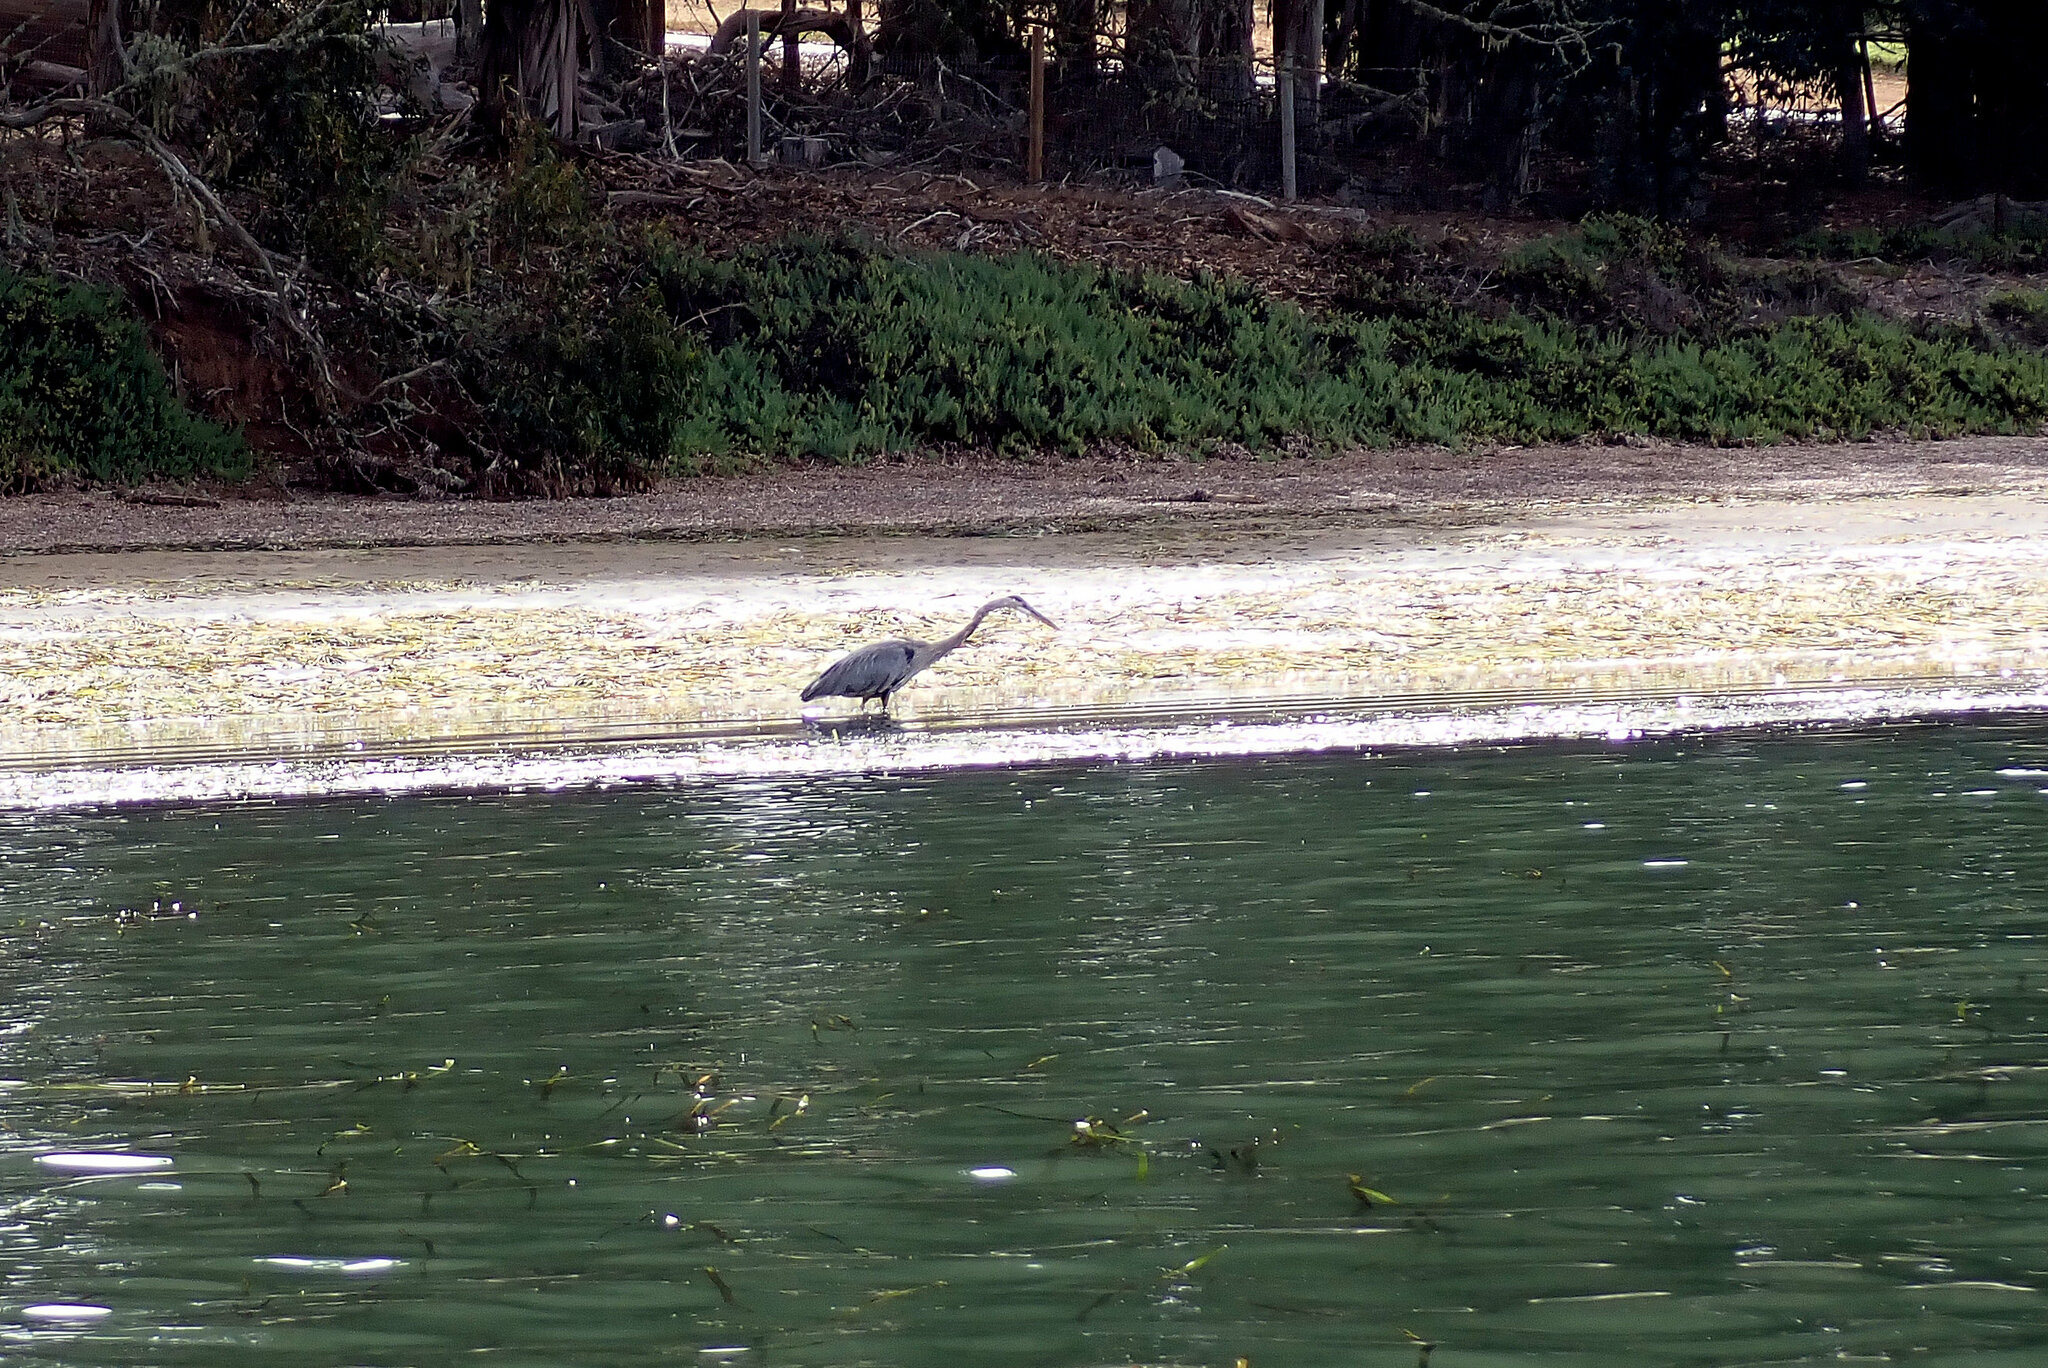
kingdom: Animalia
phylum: Chordata
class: Aves
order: Pelecaniformes
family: Ardeidae
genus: Ardea
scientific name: Ardea herodias
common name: Great blue heron
